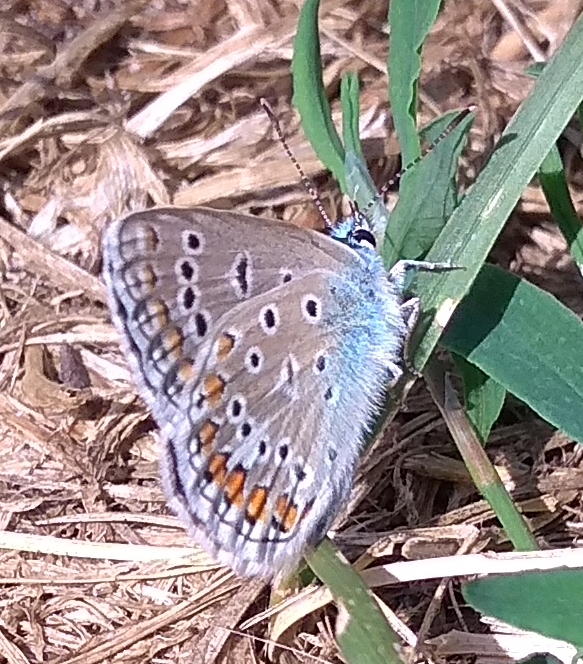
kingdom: Animalia
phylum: Arthropoda
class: Insecta
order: Lepidoptera
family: Lycaenidae
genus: Polyommatus
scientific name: Polyommatus icarus
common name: Common blue
